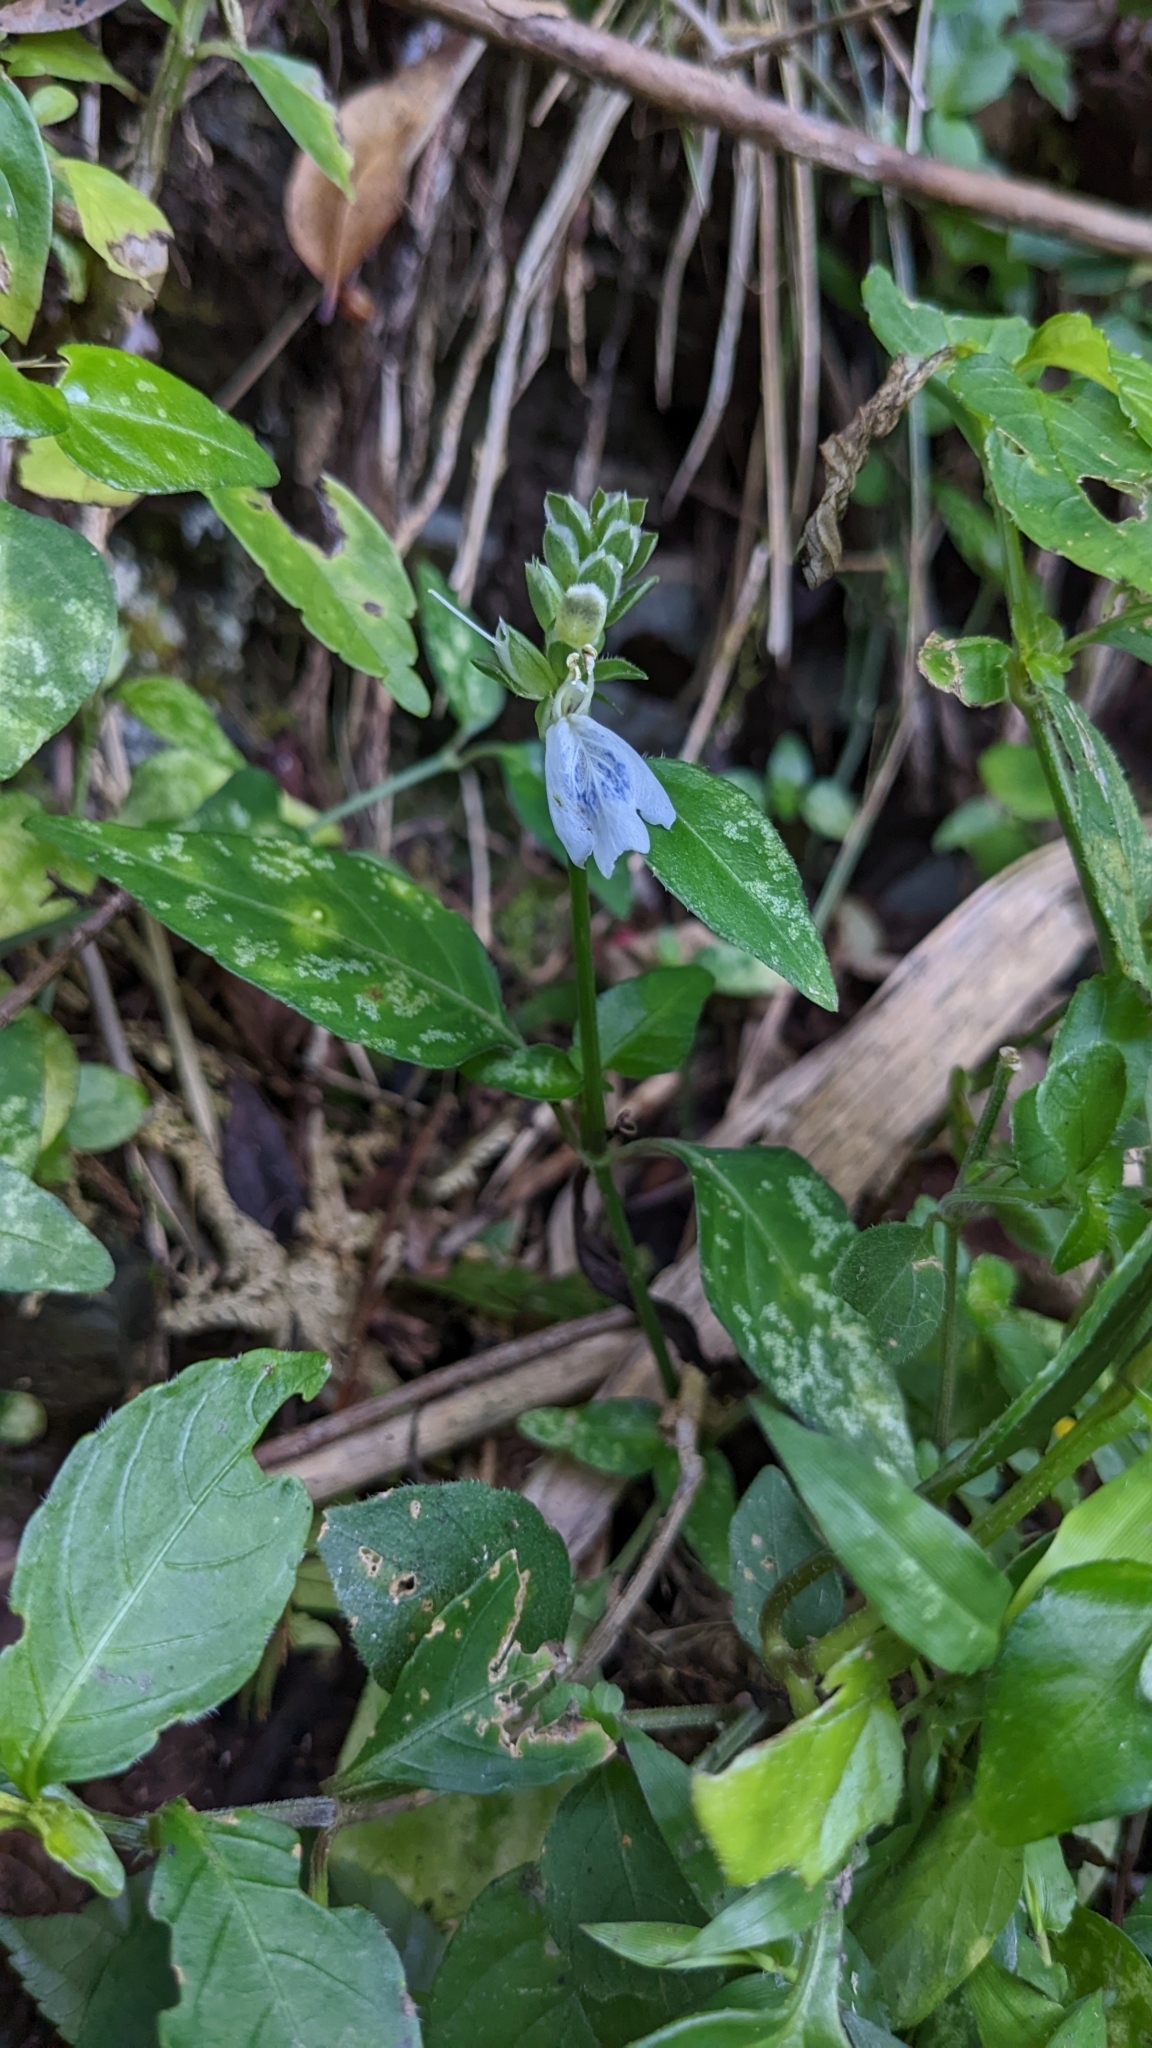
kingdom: Plantae
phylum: Tracheophyta
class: Magnoliopsida
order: Lamiales
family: Acanthaceae
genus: Rungia
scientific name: Rungia chinensis
